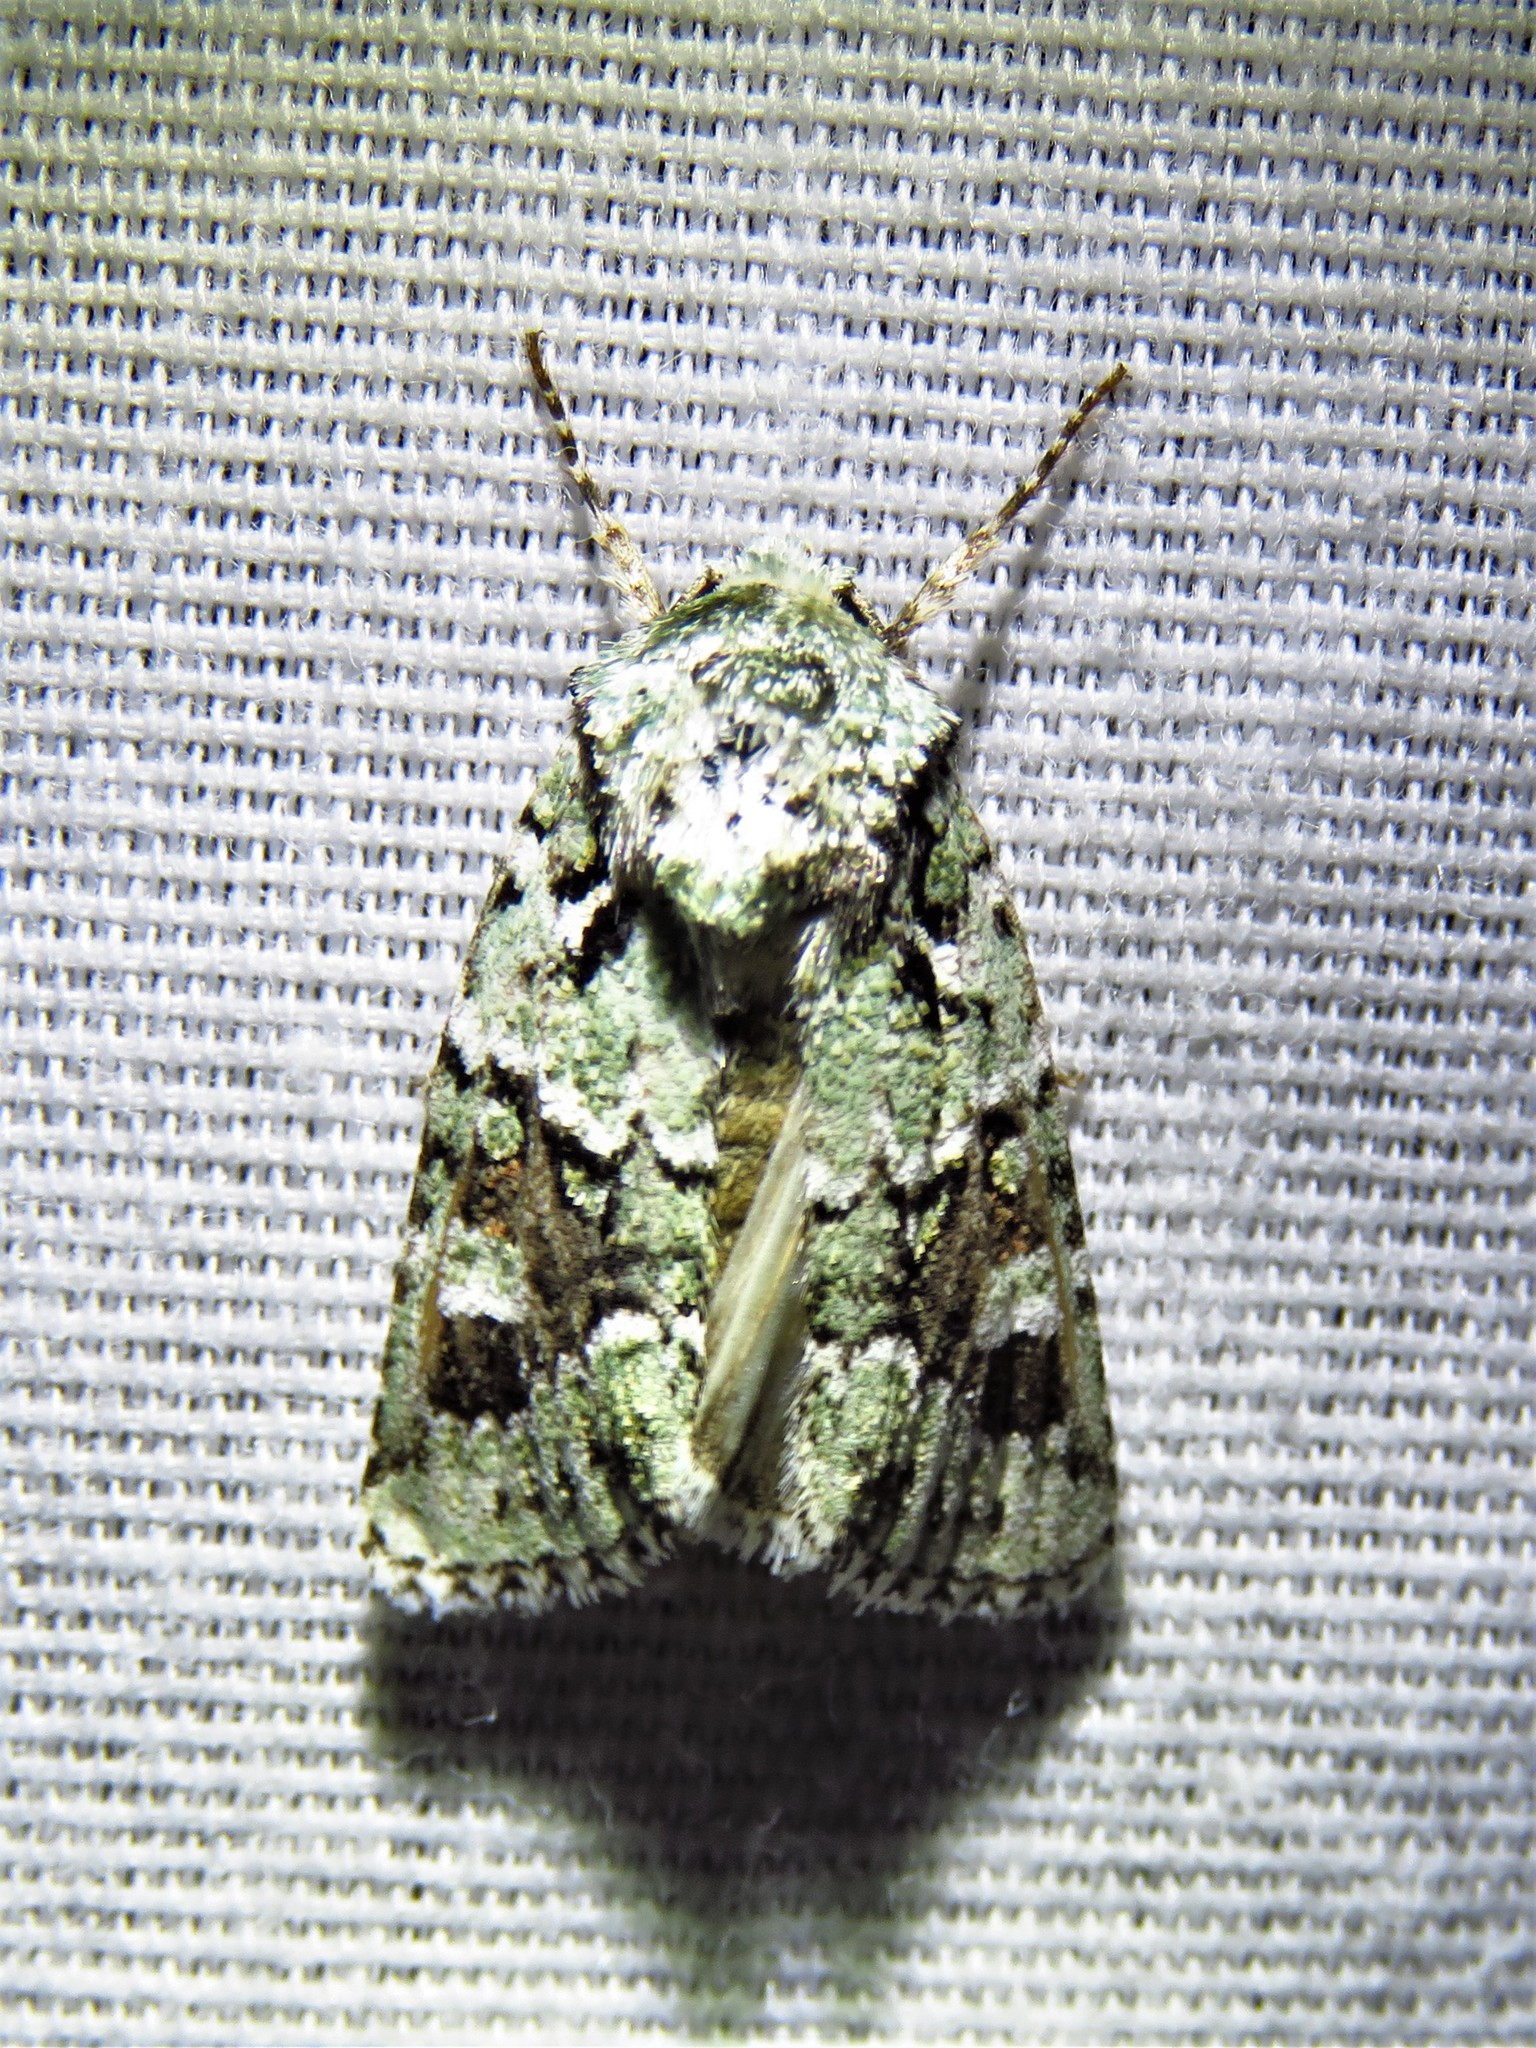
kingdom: Animalia
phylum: Arthropoda
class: Insecta
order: Lepidoptera
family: Noctuidae
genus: Lacinipolia
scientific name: Lacinipolia laudabilis
